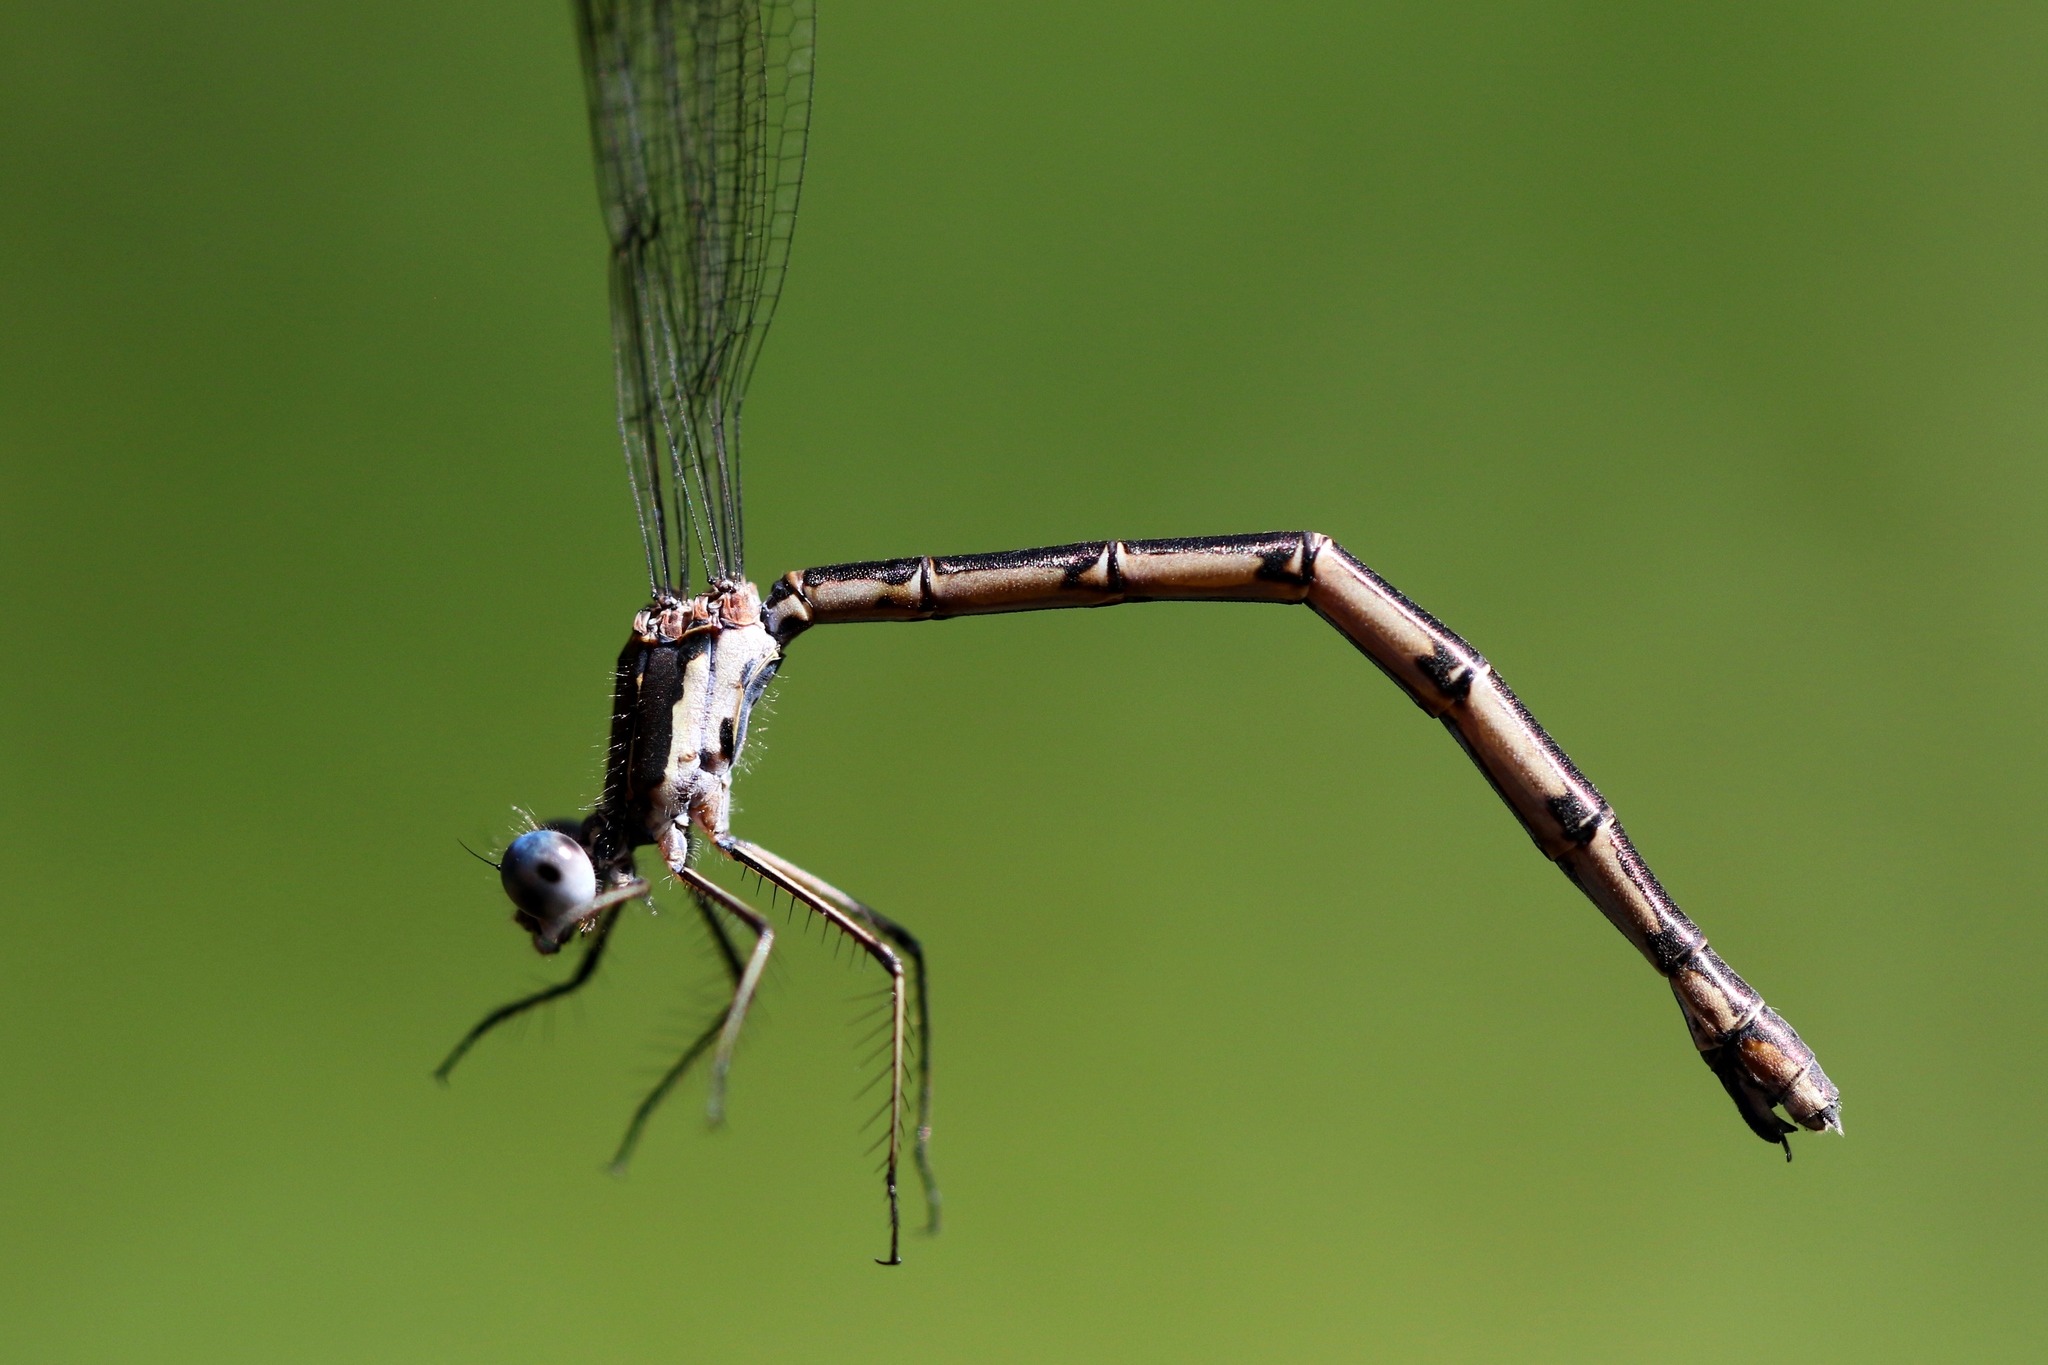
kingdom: Animalia
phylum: Arthropoda
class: Insecta
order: Odonata
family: Lestidae
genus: Lestes
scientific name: Lestes congener
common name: Spotted spreadwing
